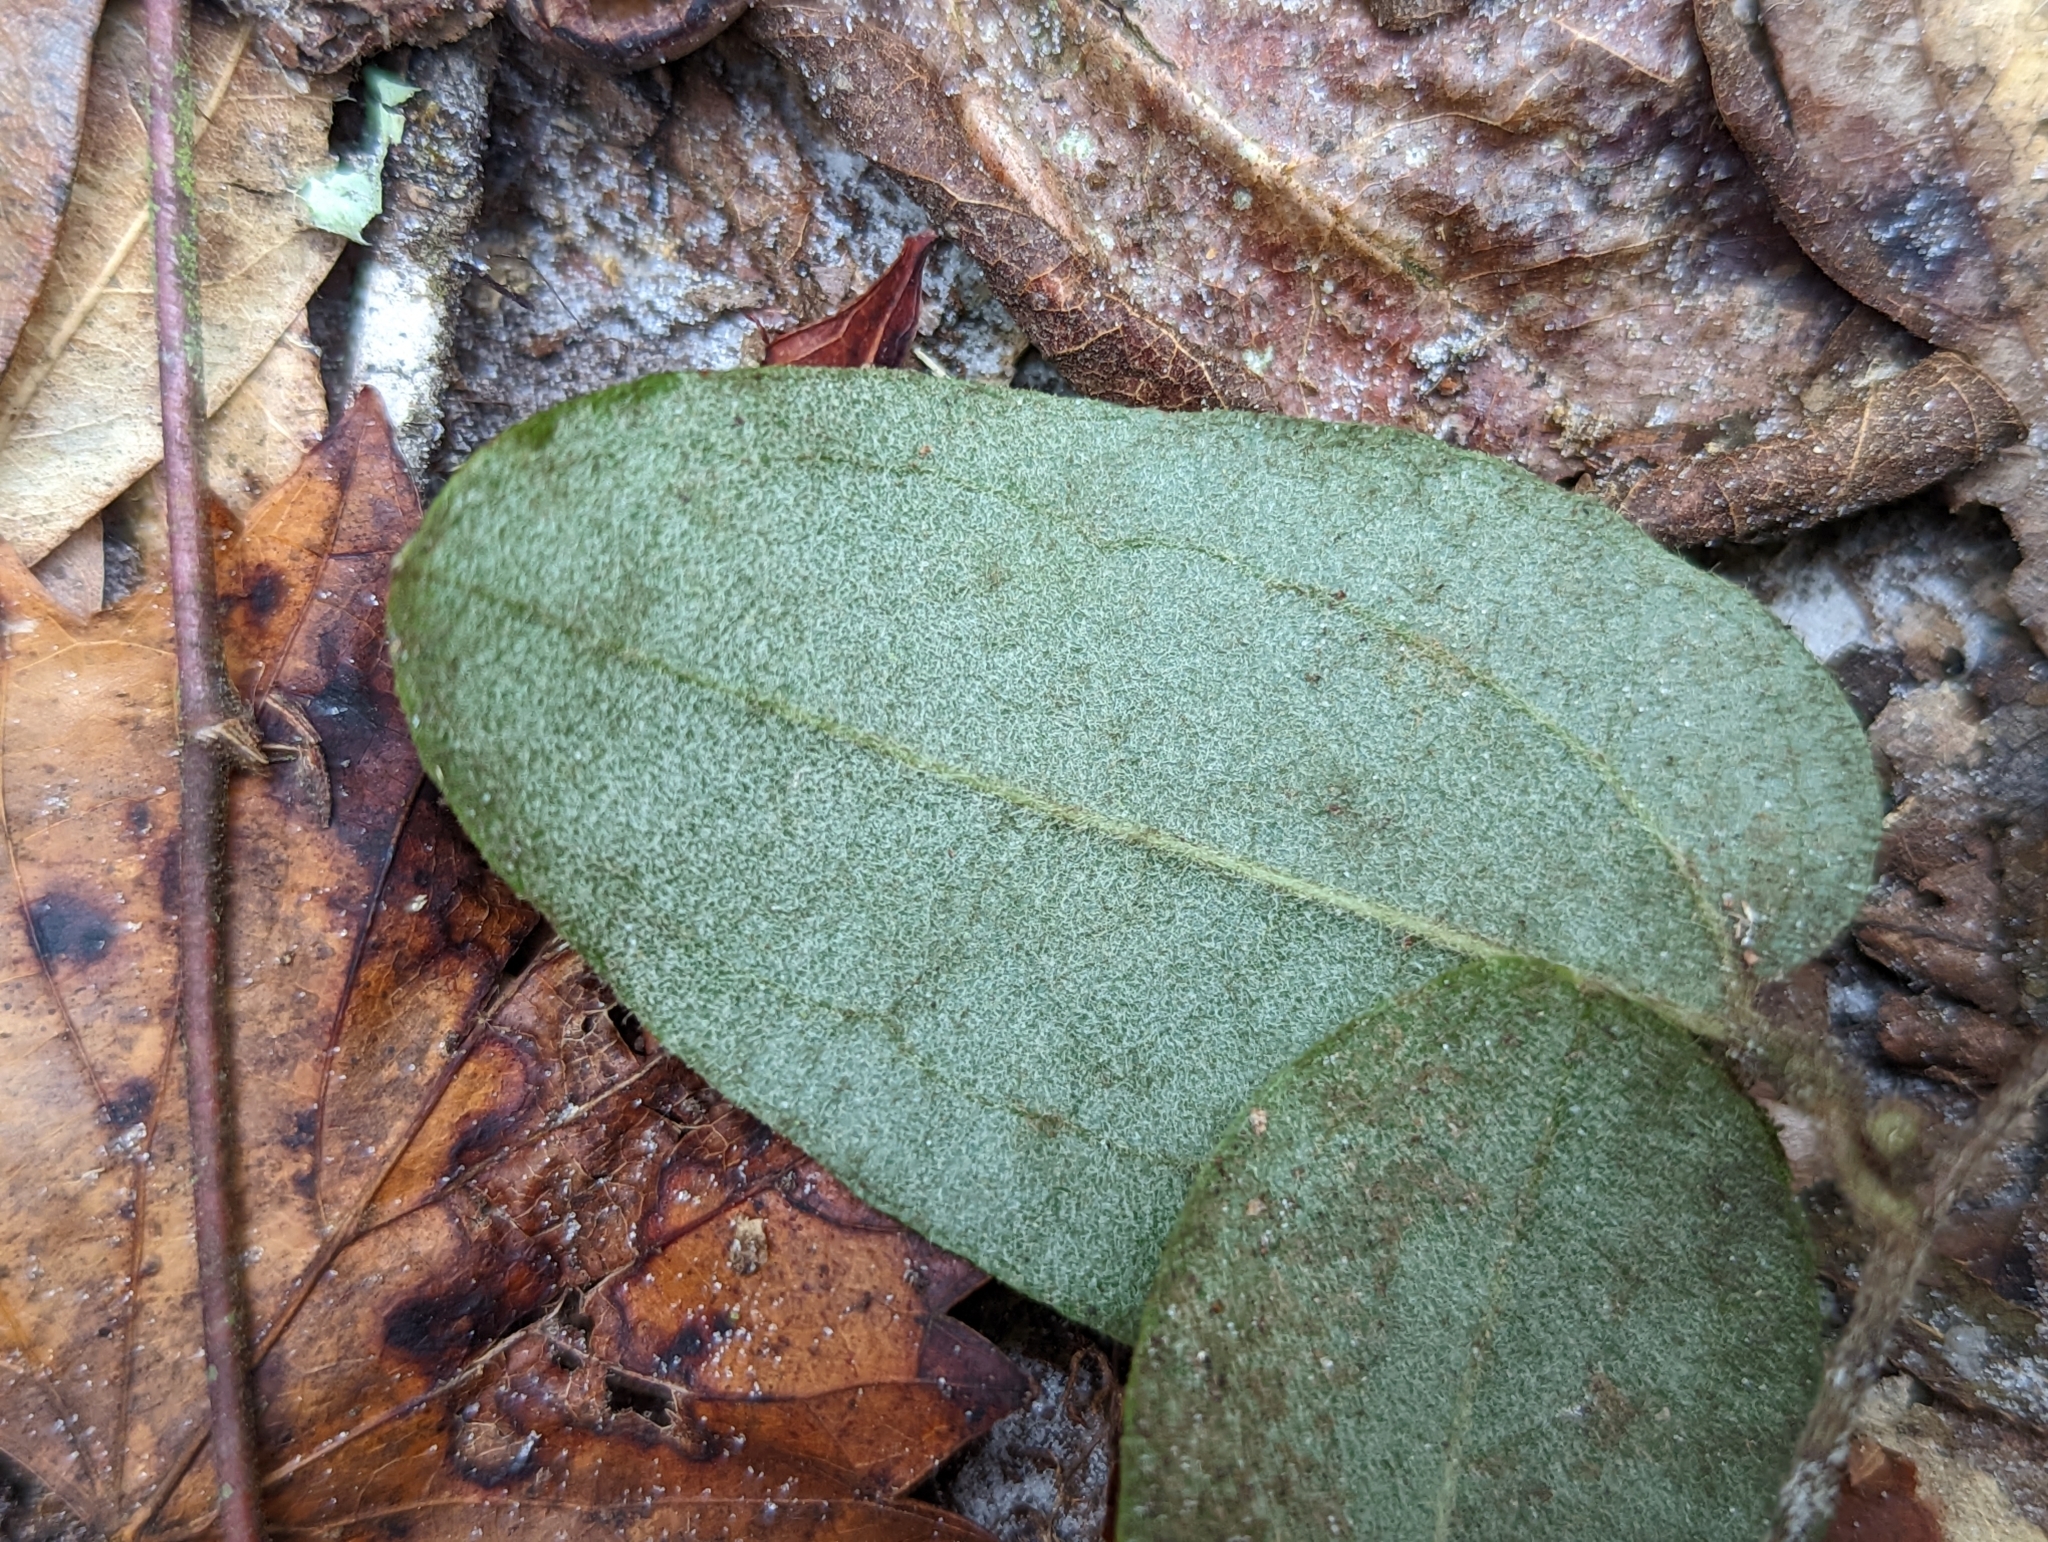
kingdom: Plantae
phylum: Tracheophyta
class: Liliopsida
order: Liliales
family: Smilacaceae
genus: Smilax
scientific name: Smilax pumila
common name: Sarsaparilla-vine
